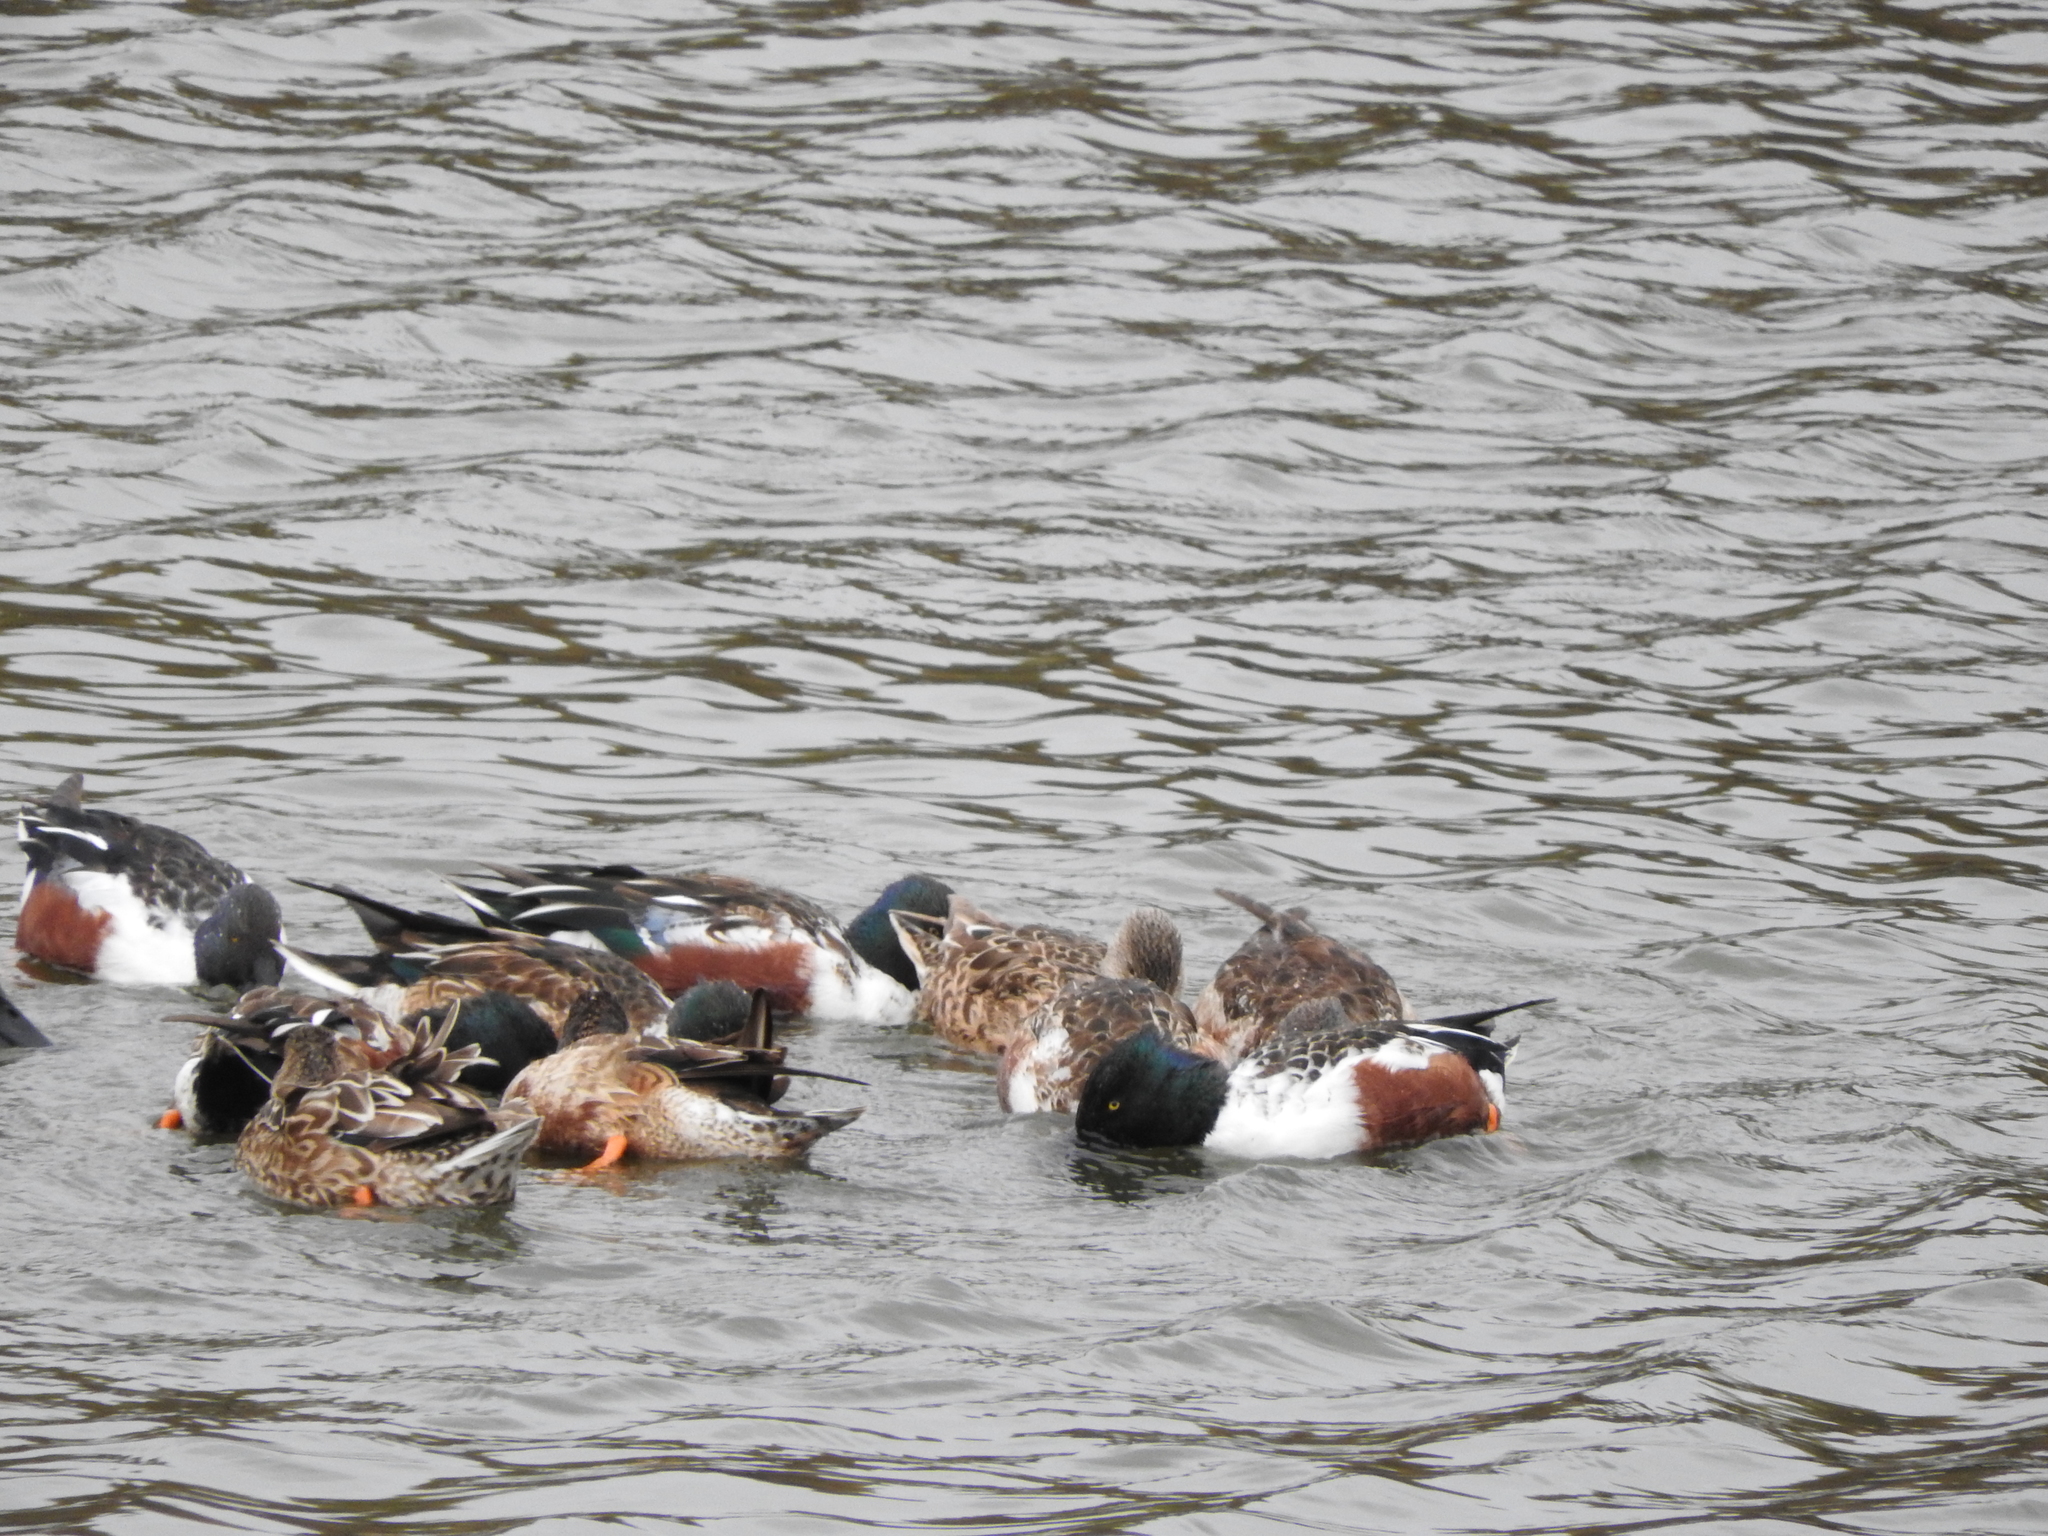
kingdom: Animalia
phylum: Chordata
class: Aves
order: Anseriformes
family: Anatidae
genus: Spatula
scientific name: Spatula clypeata
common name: Northern shoveler
